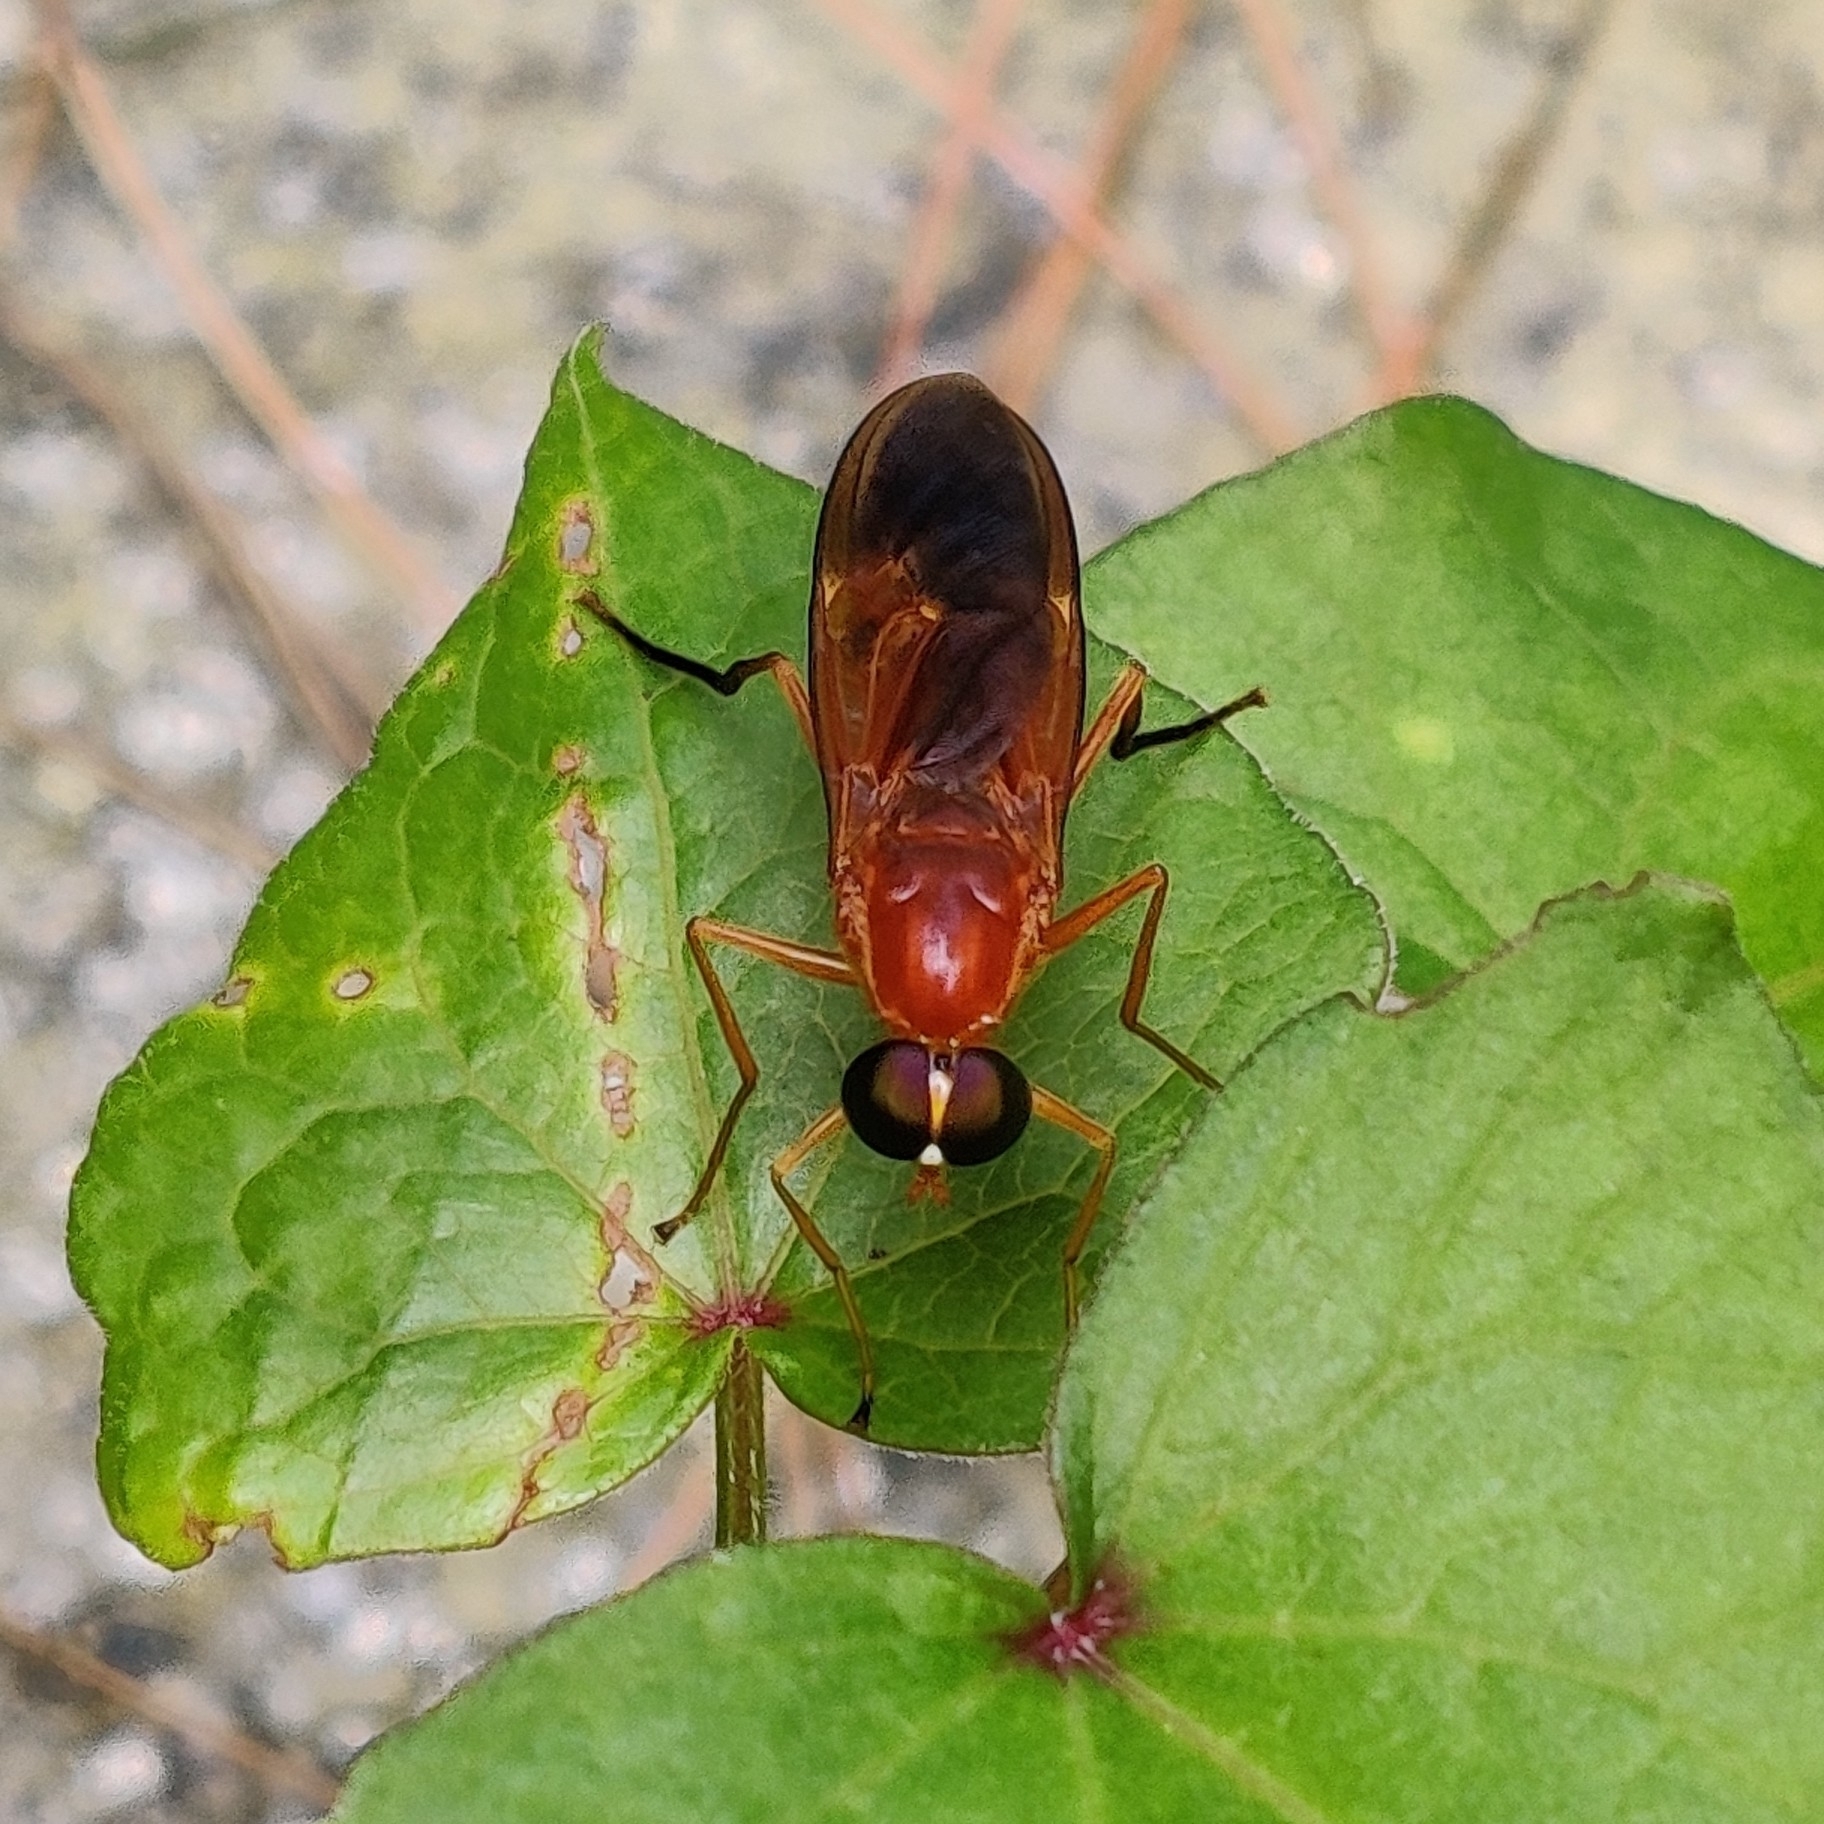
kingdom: Animalia
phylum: Arthropoda
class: Insecta
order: Diptera
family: Stratiomyidae
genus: Ptecticus
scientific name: Ptecticus aurifer
